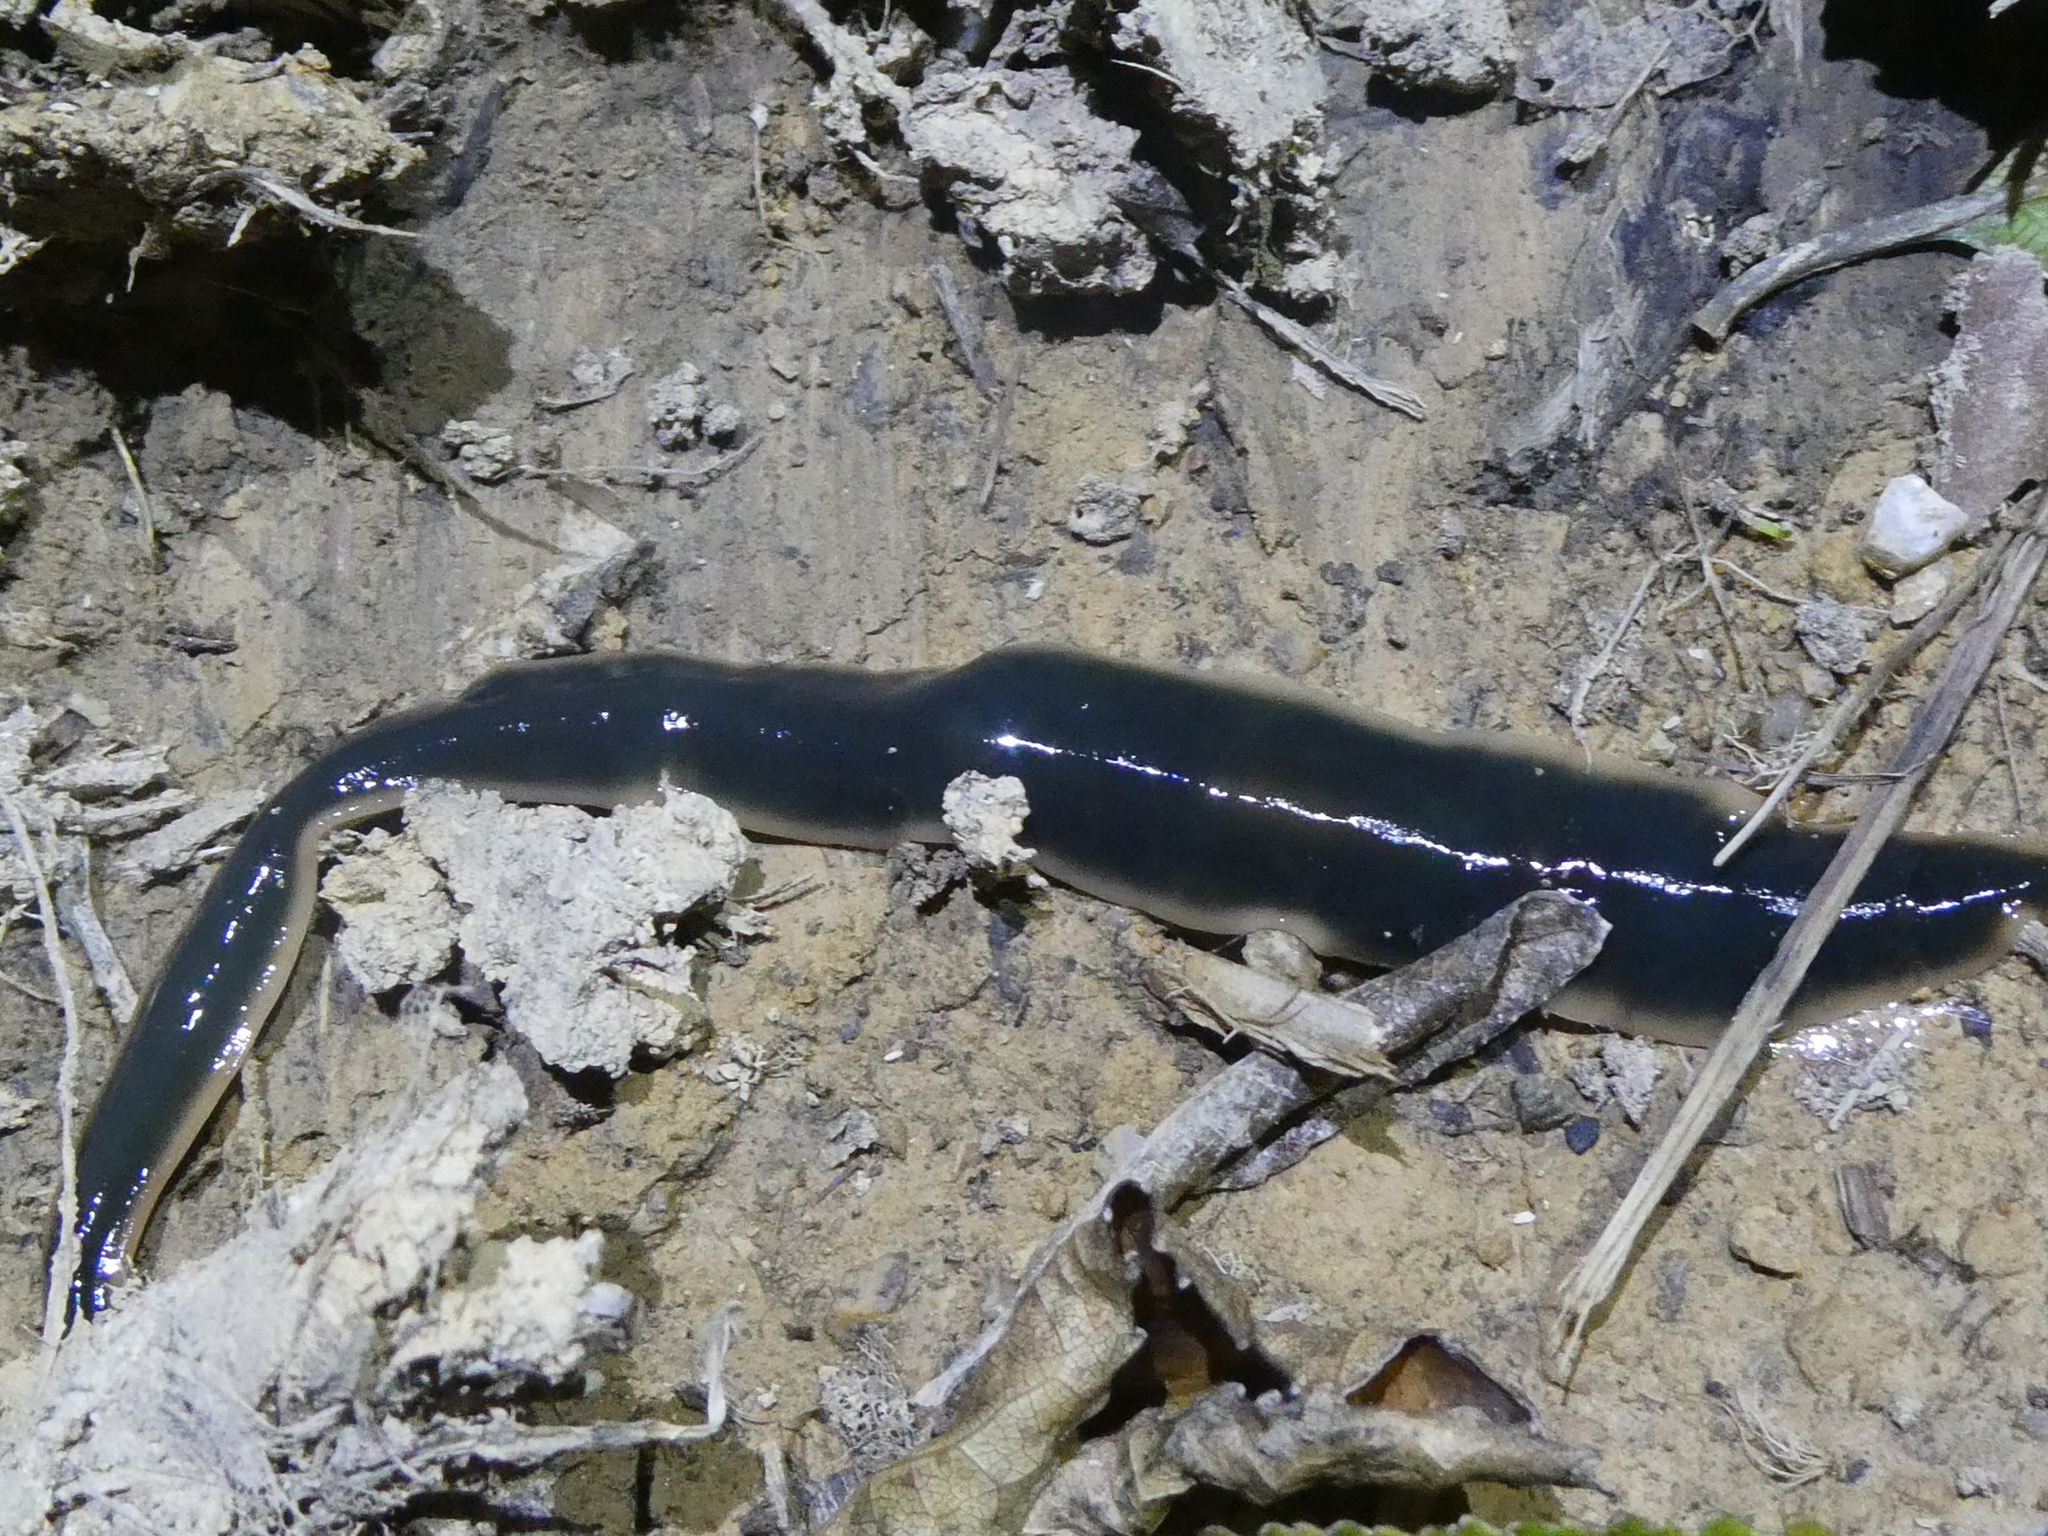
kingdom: Animalia
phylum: Platyhelminthes
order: Tricladida
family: Geoplanidae
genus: Australopacifica
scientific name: Australopacifica
